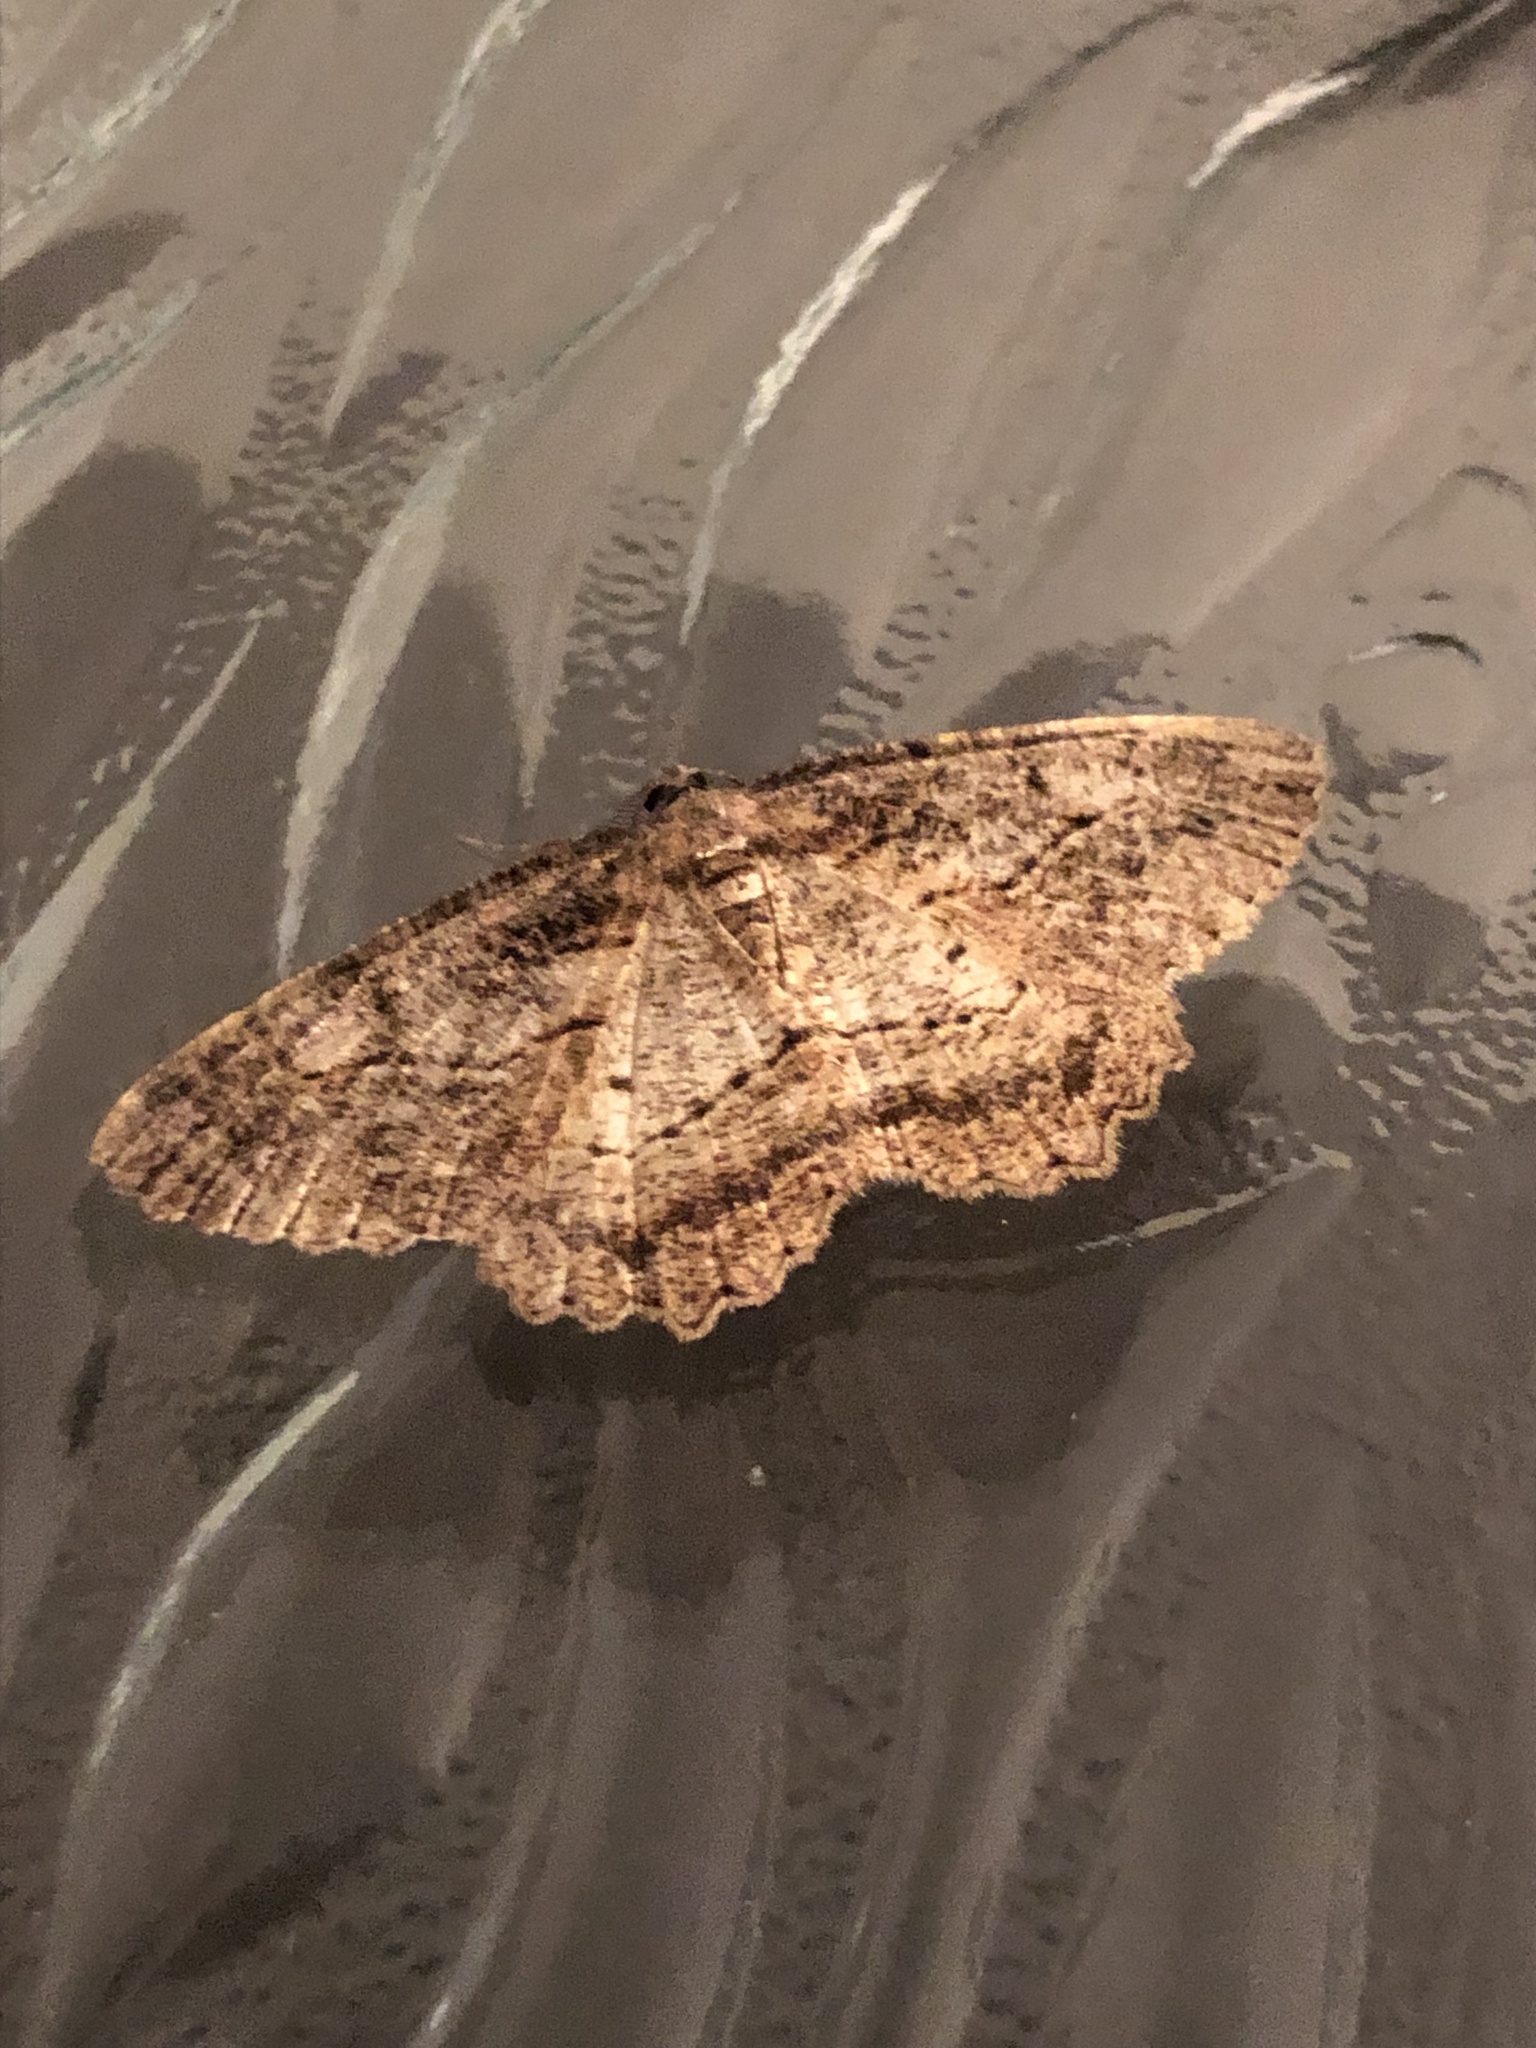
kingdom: Animalia
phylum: Arthropoda
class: Insecta
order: Lepidoptera
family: Geometridae
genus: Neoalcis
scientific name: Neoalcis californiaria
